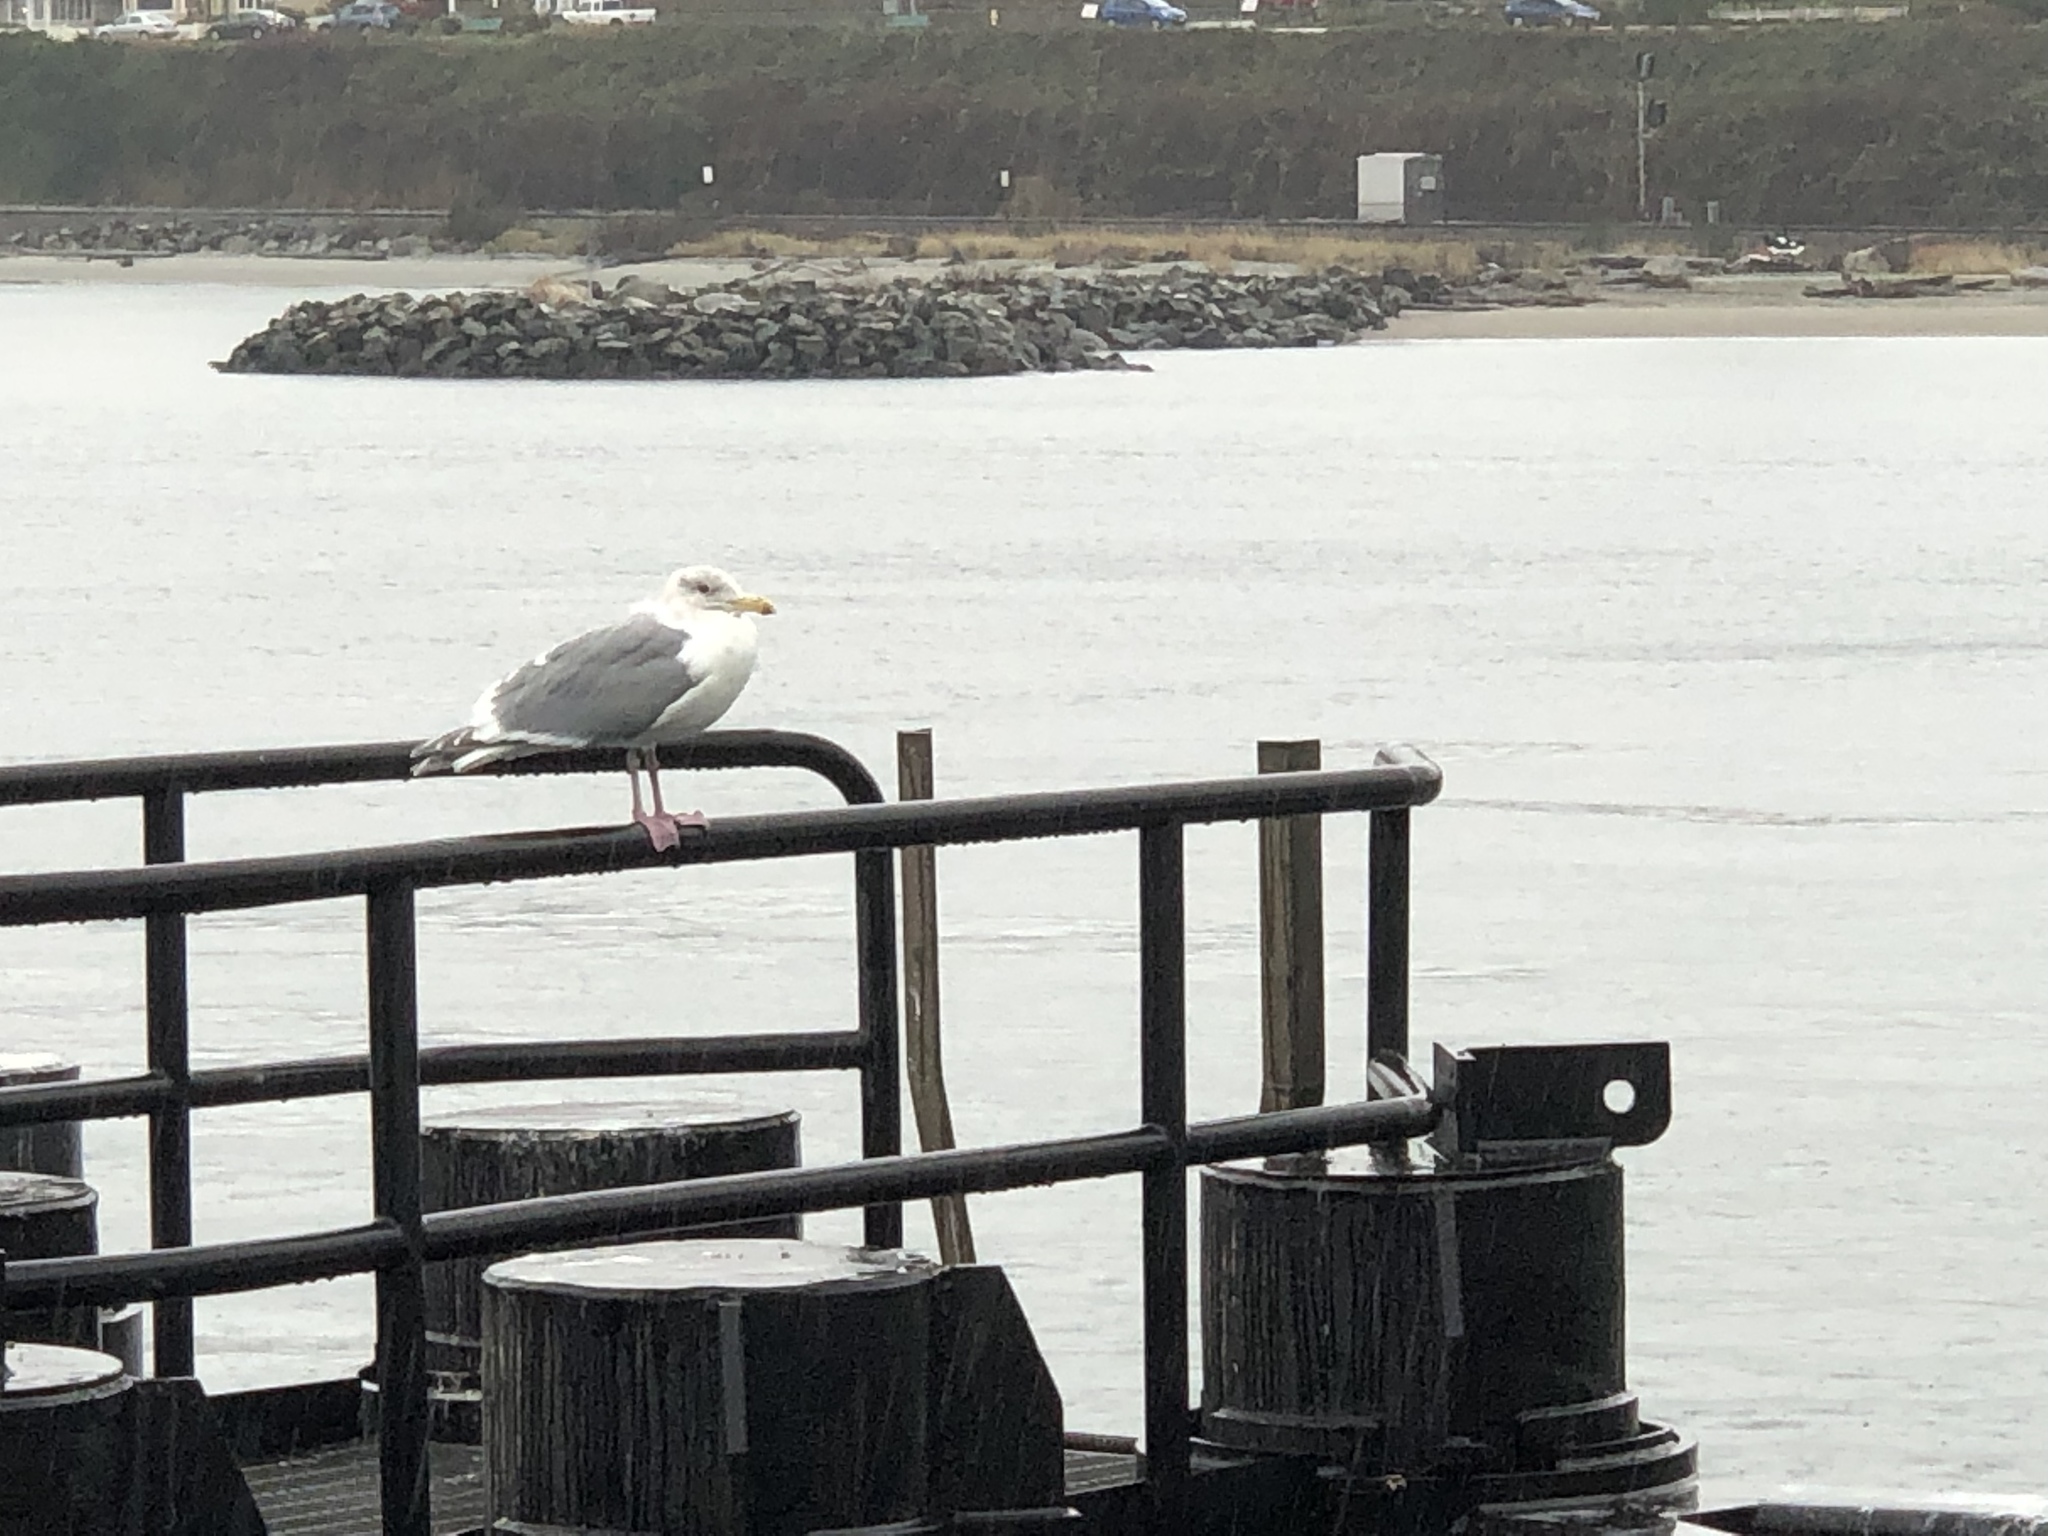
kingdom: Animalia
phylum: Chordata
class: Aves
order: Charadriiformes
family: Laridae
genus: Larus
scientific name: Larus
